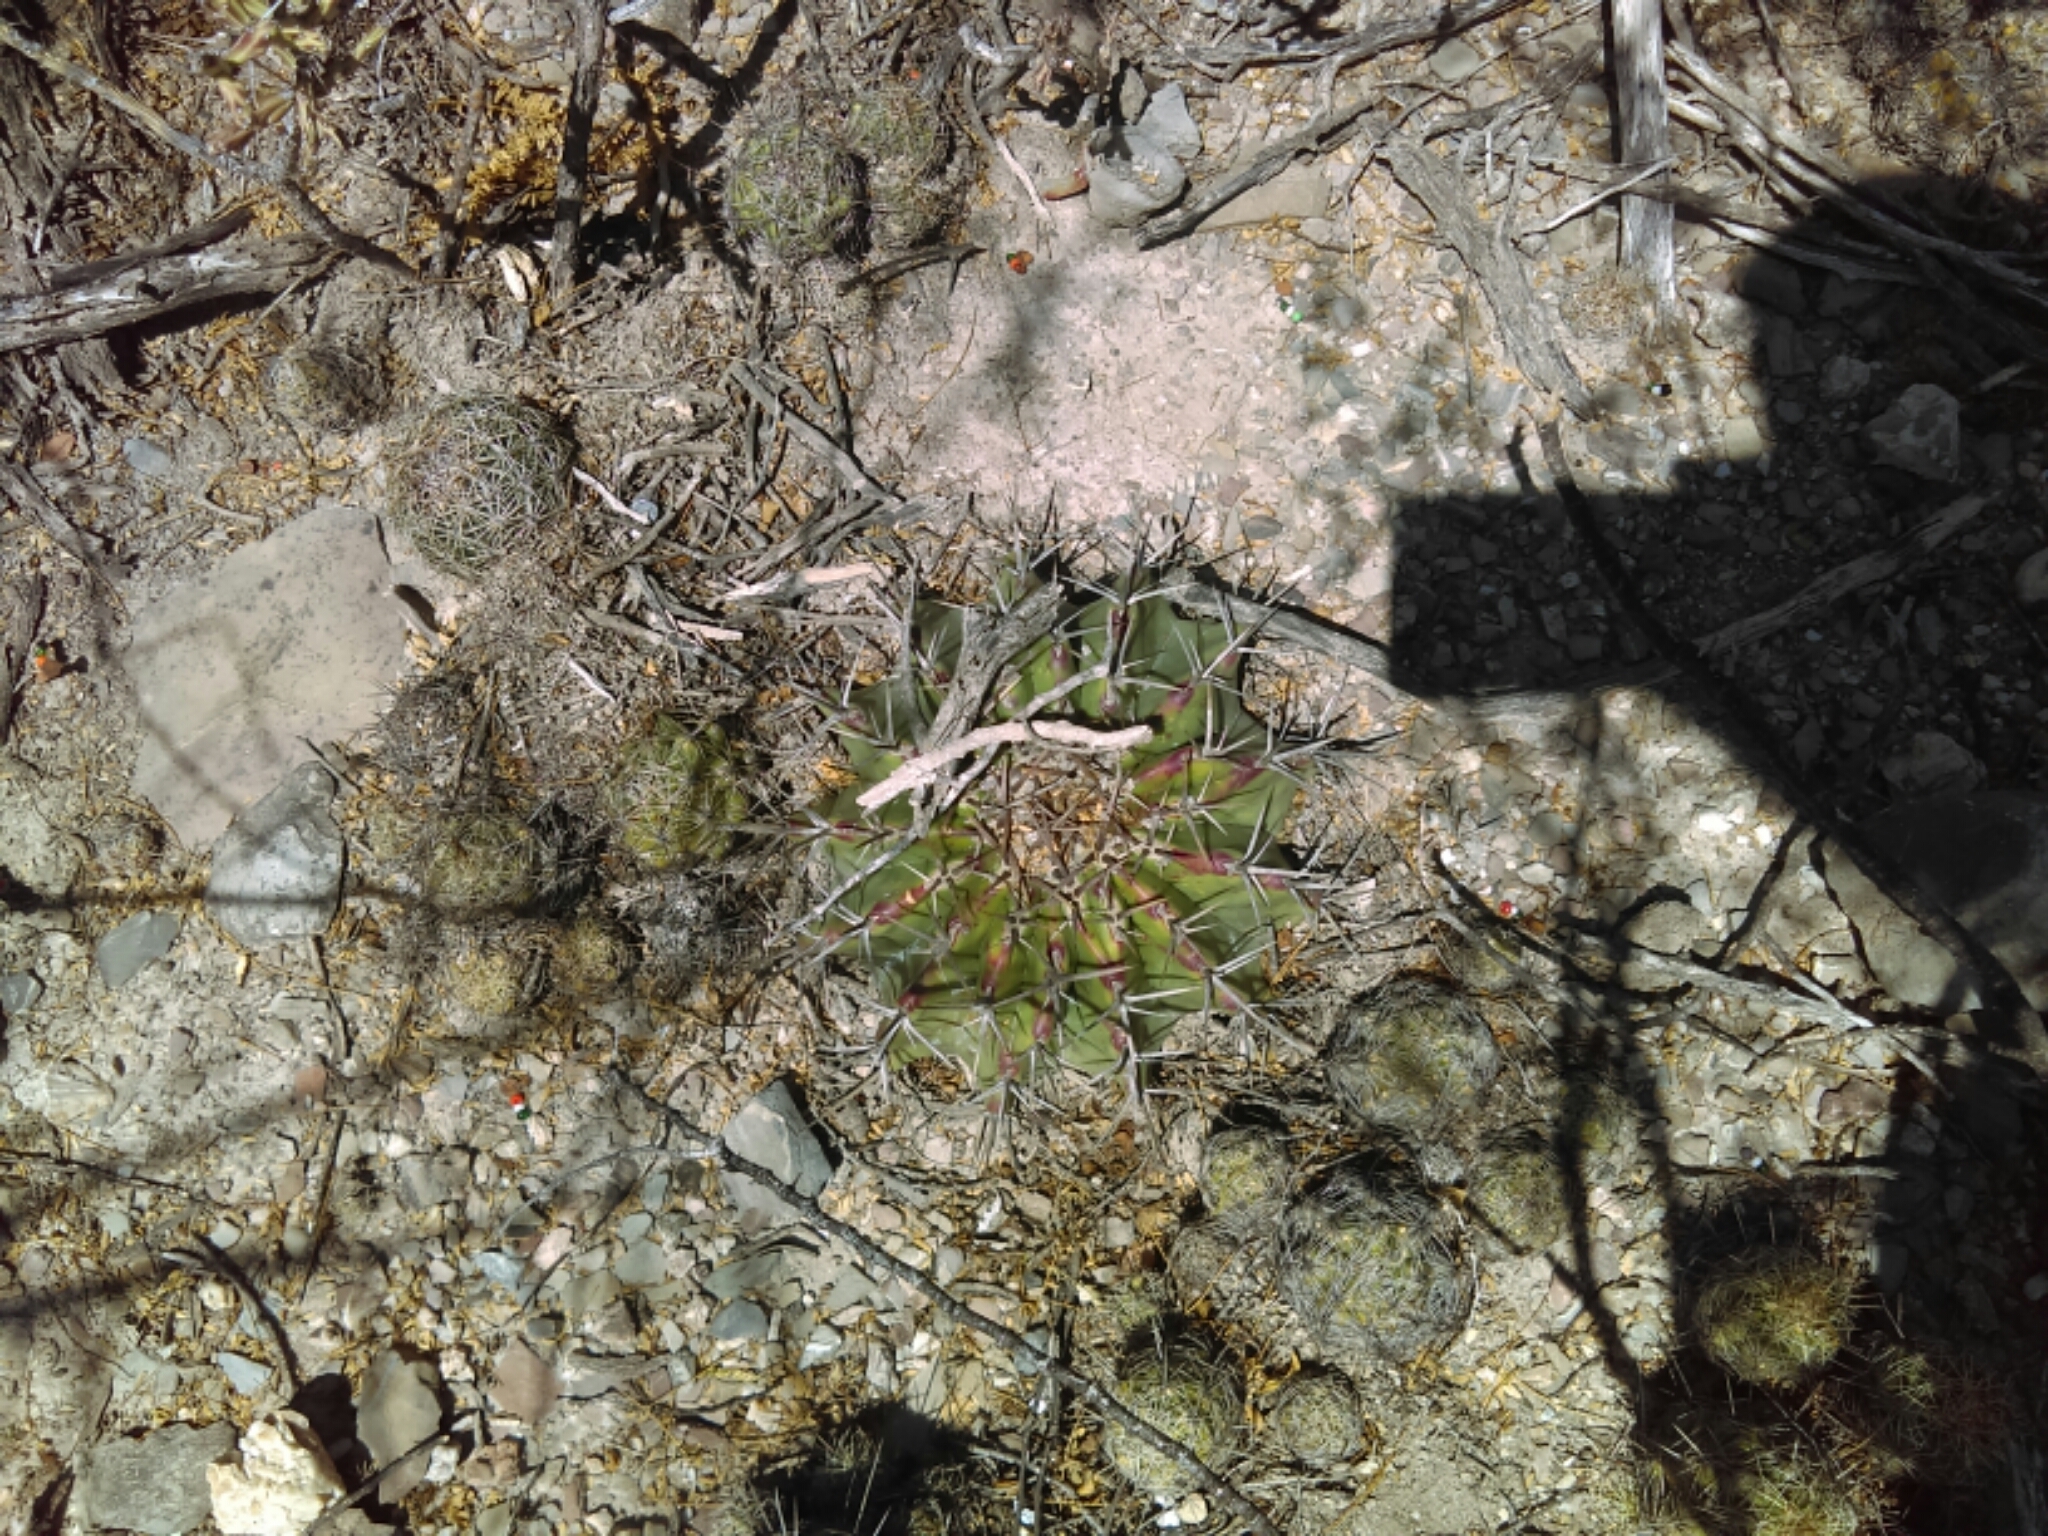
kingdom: Plantae
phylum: Tracheophyta
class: Magnoliopsida
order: Caryophyllales
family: Cactaceae
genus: Echinocactus
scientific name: Echinocactus platyacanthus
